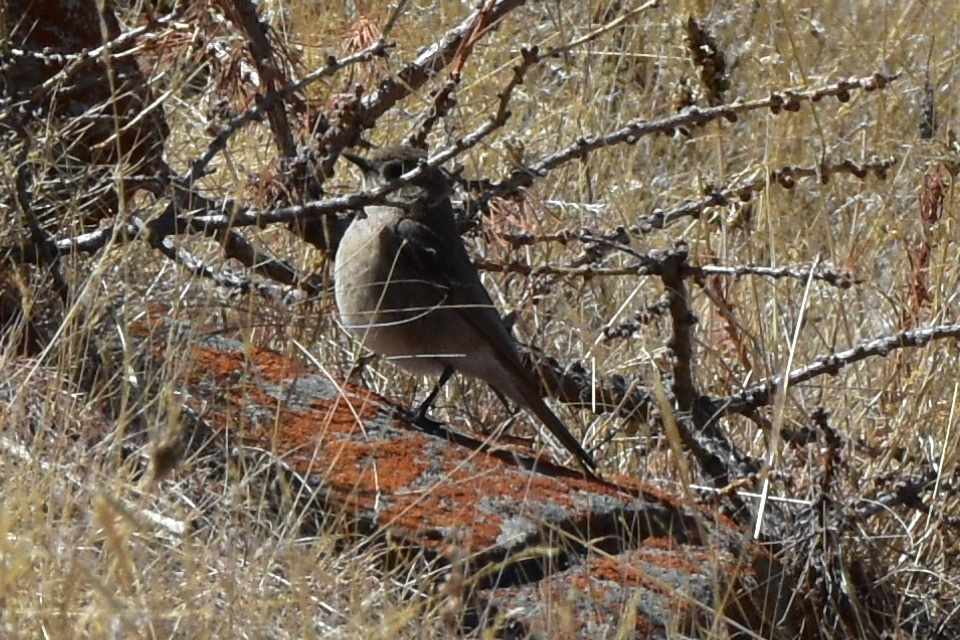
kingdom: Animalia
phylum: Chordata
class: Aves
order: Passeriformes
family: Muscicapidae
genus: Phoenicurus
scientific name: Phoenicurus erythronotus
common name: Eversmann's redstart
